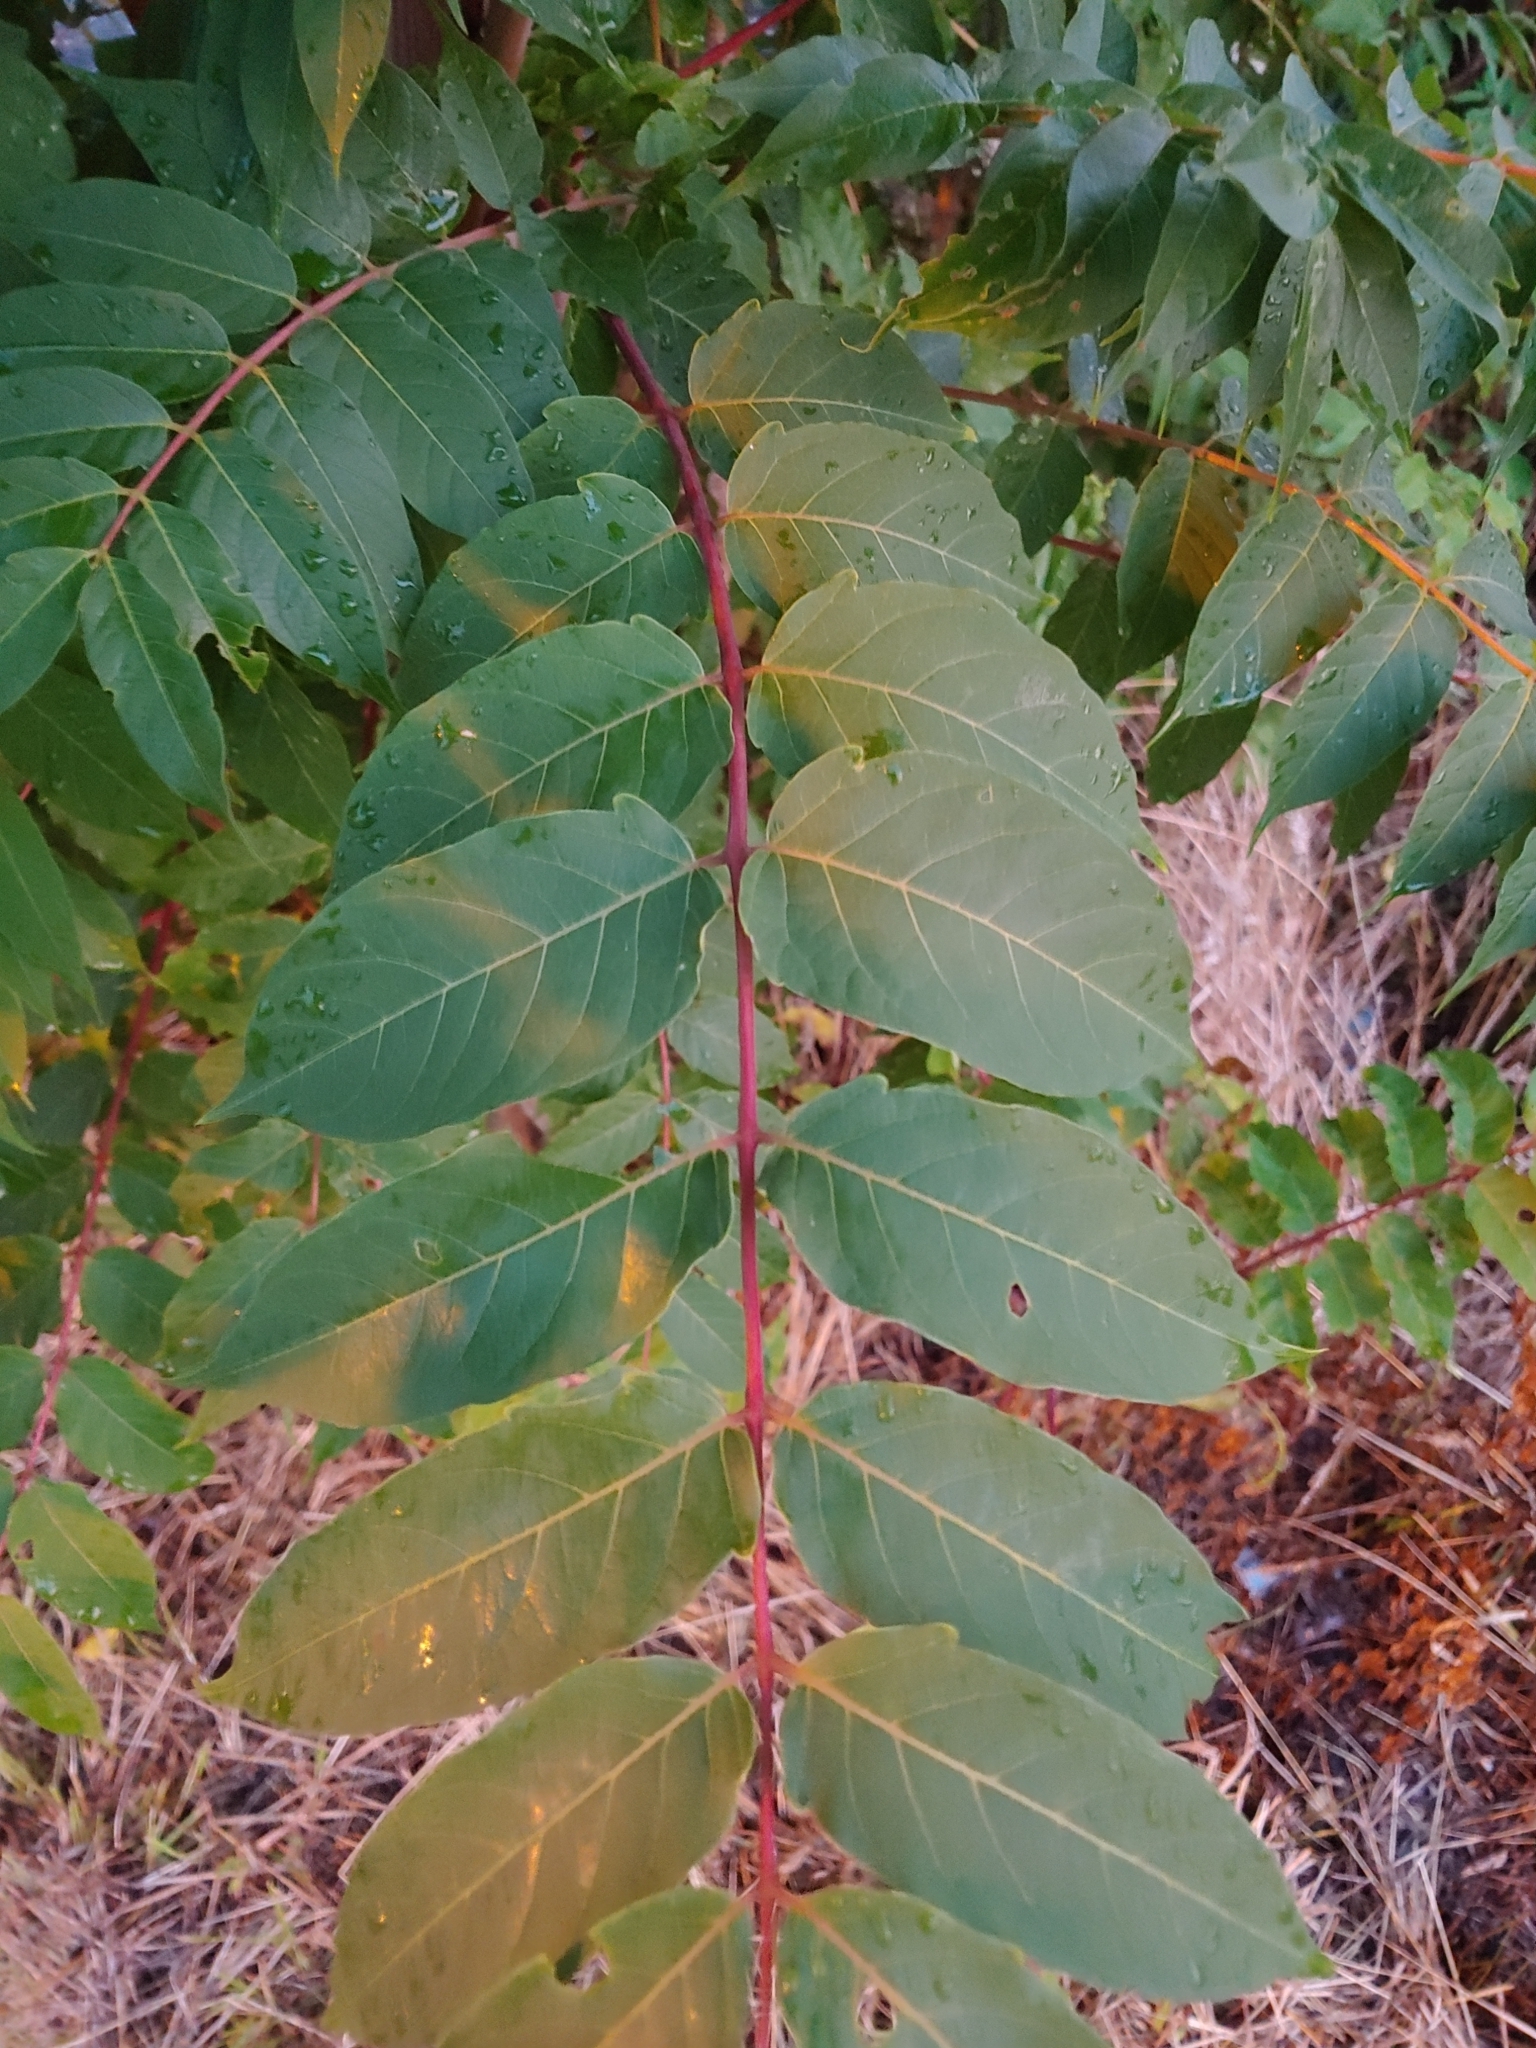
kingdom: Plantae
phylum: Tracheophyta
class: Magnoliopsida
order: Sapindales
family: Simaroubaceae
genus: Ailanthus
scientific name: Ailanthus altissima
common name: Tree-of-heaven
